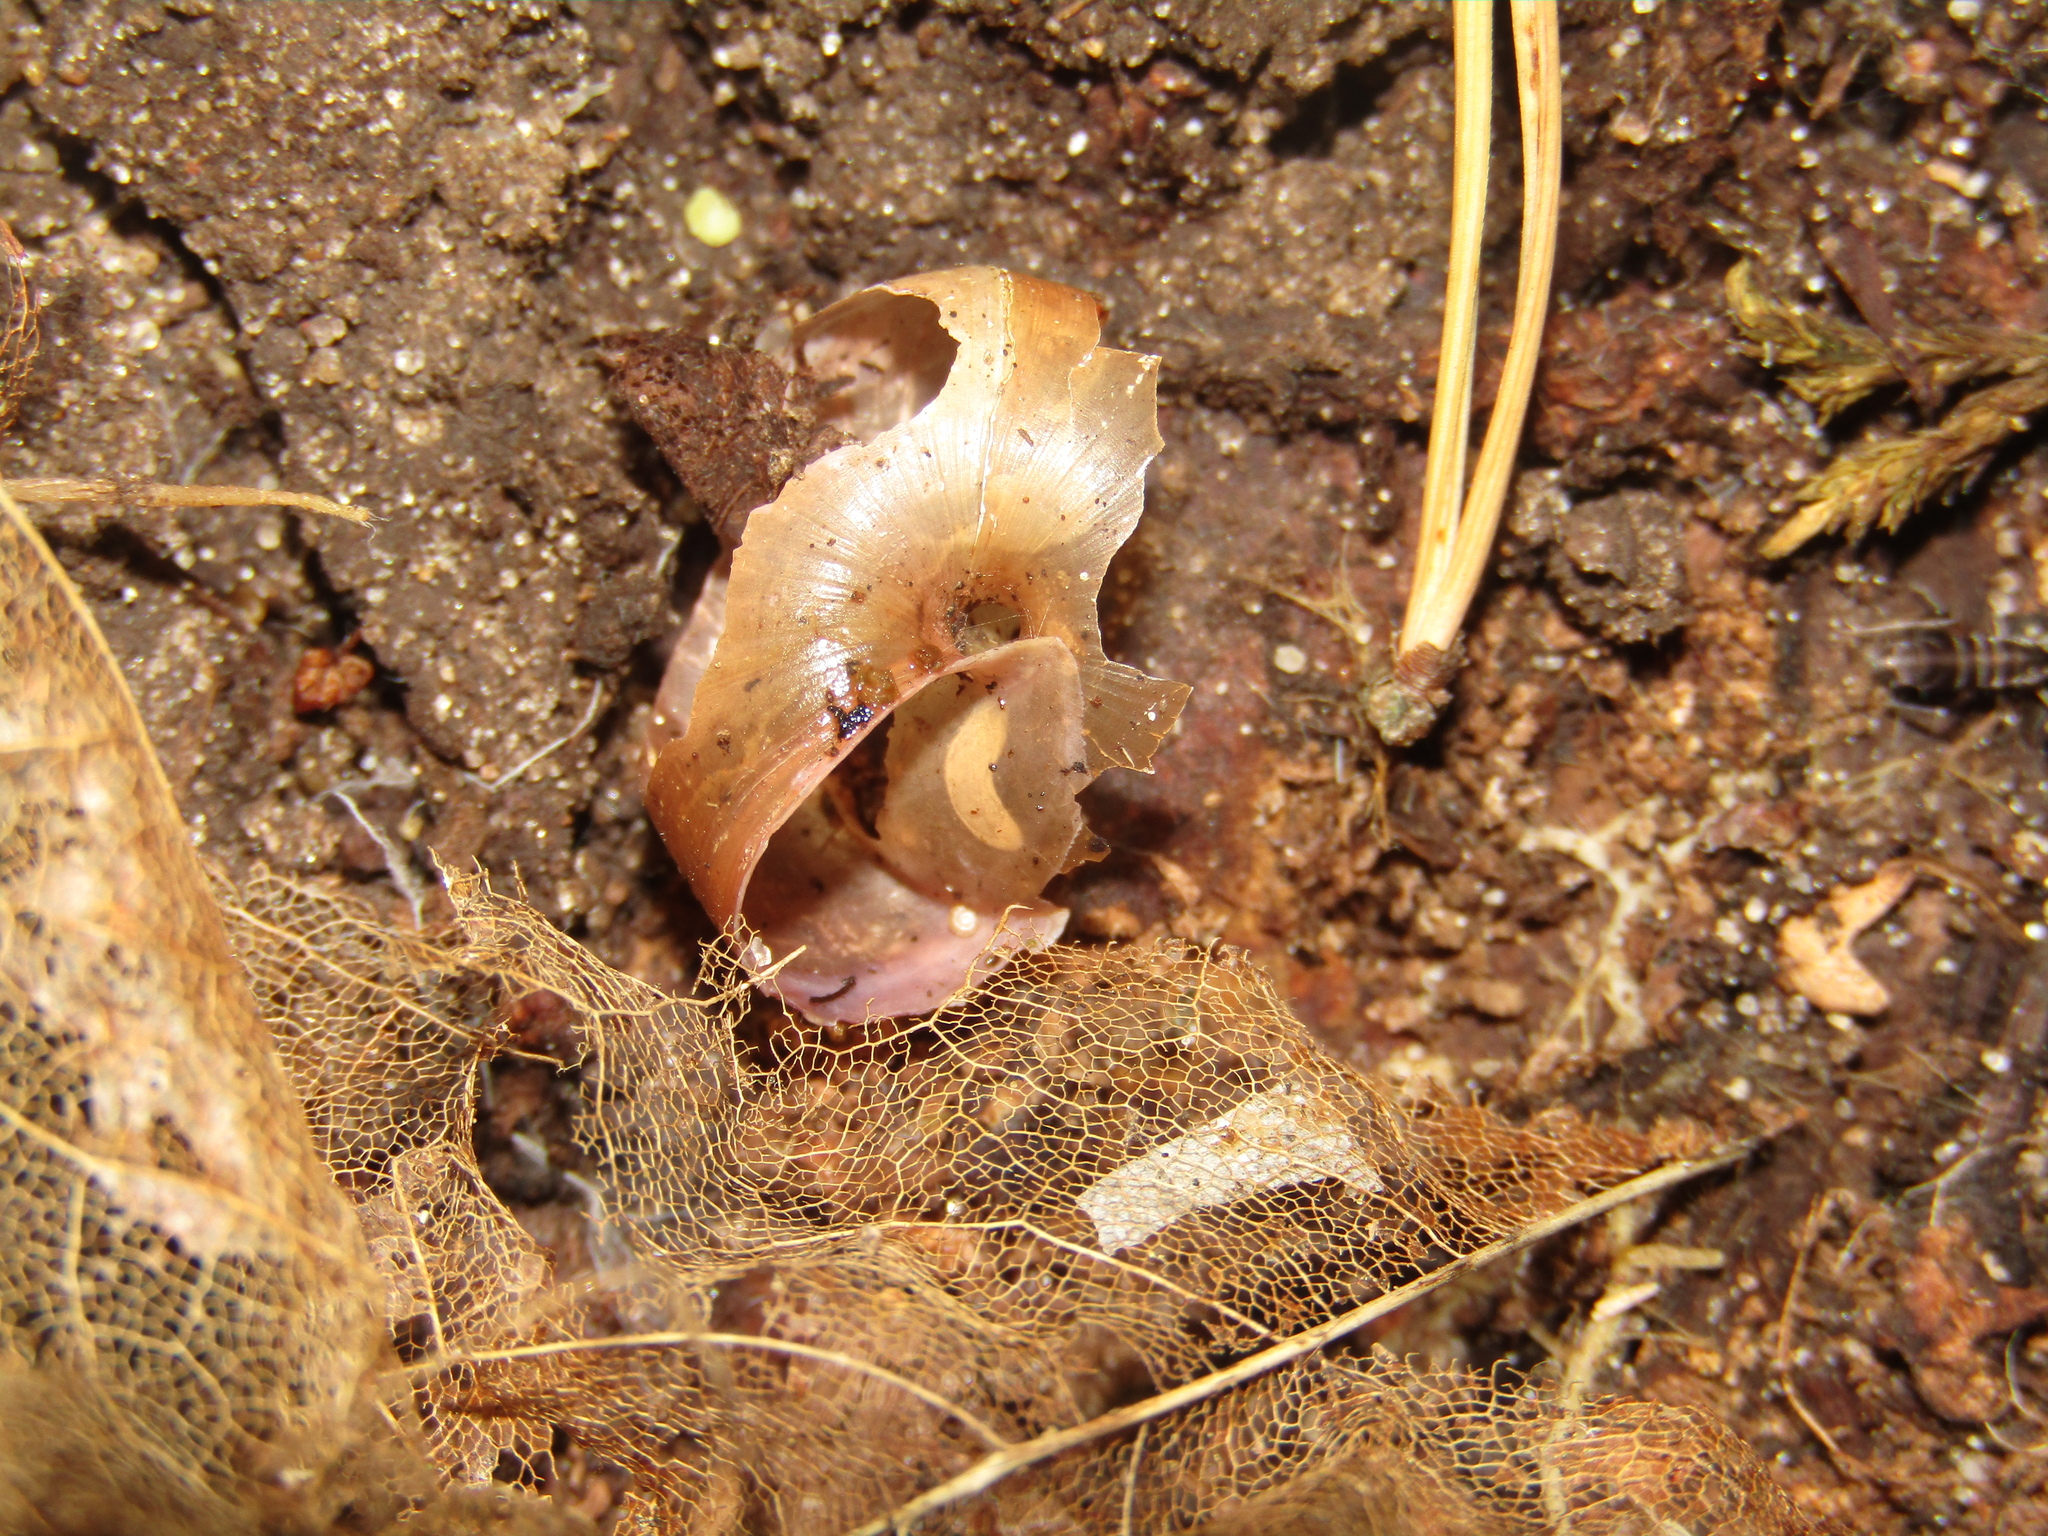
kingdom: Animalia
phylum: Mollusca
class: Gastropoda
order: Stylommatophora
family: Camaenidae
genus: Fruticicola
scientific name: Fruticicola fruticum
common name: Bush snail
